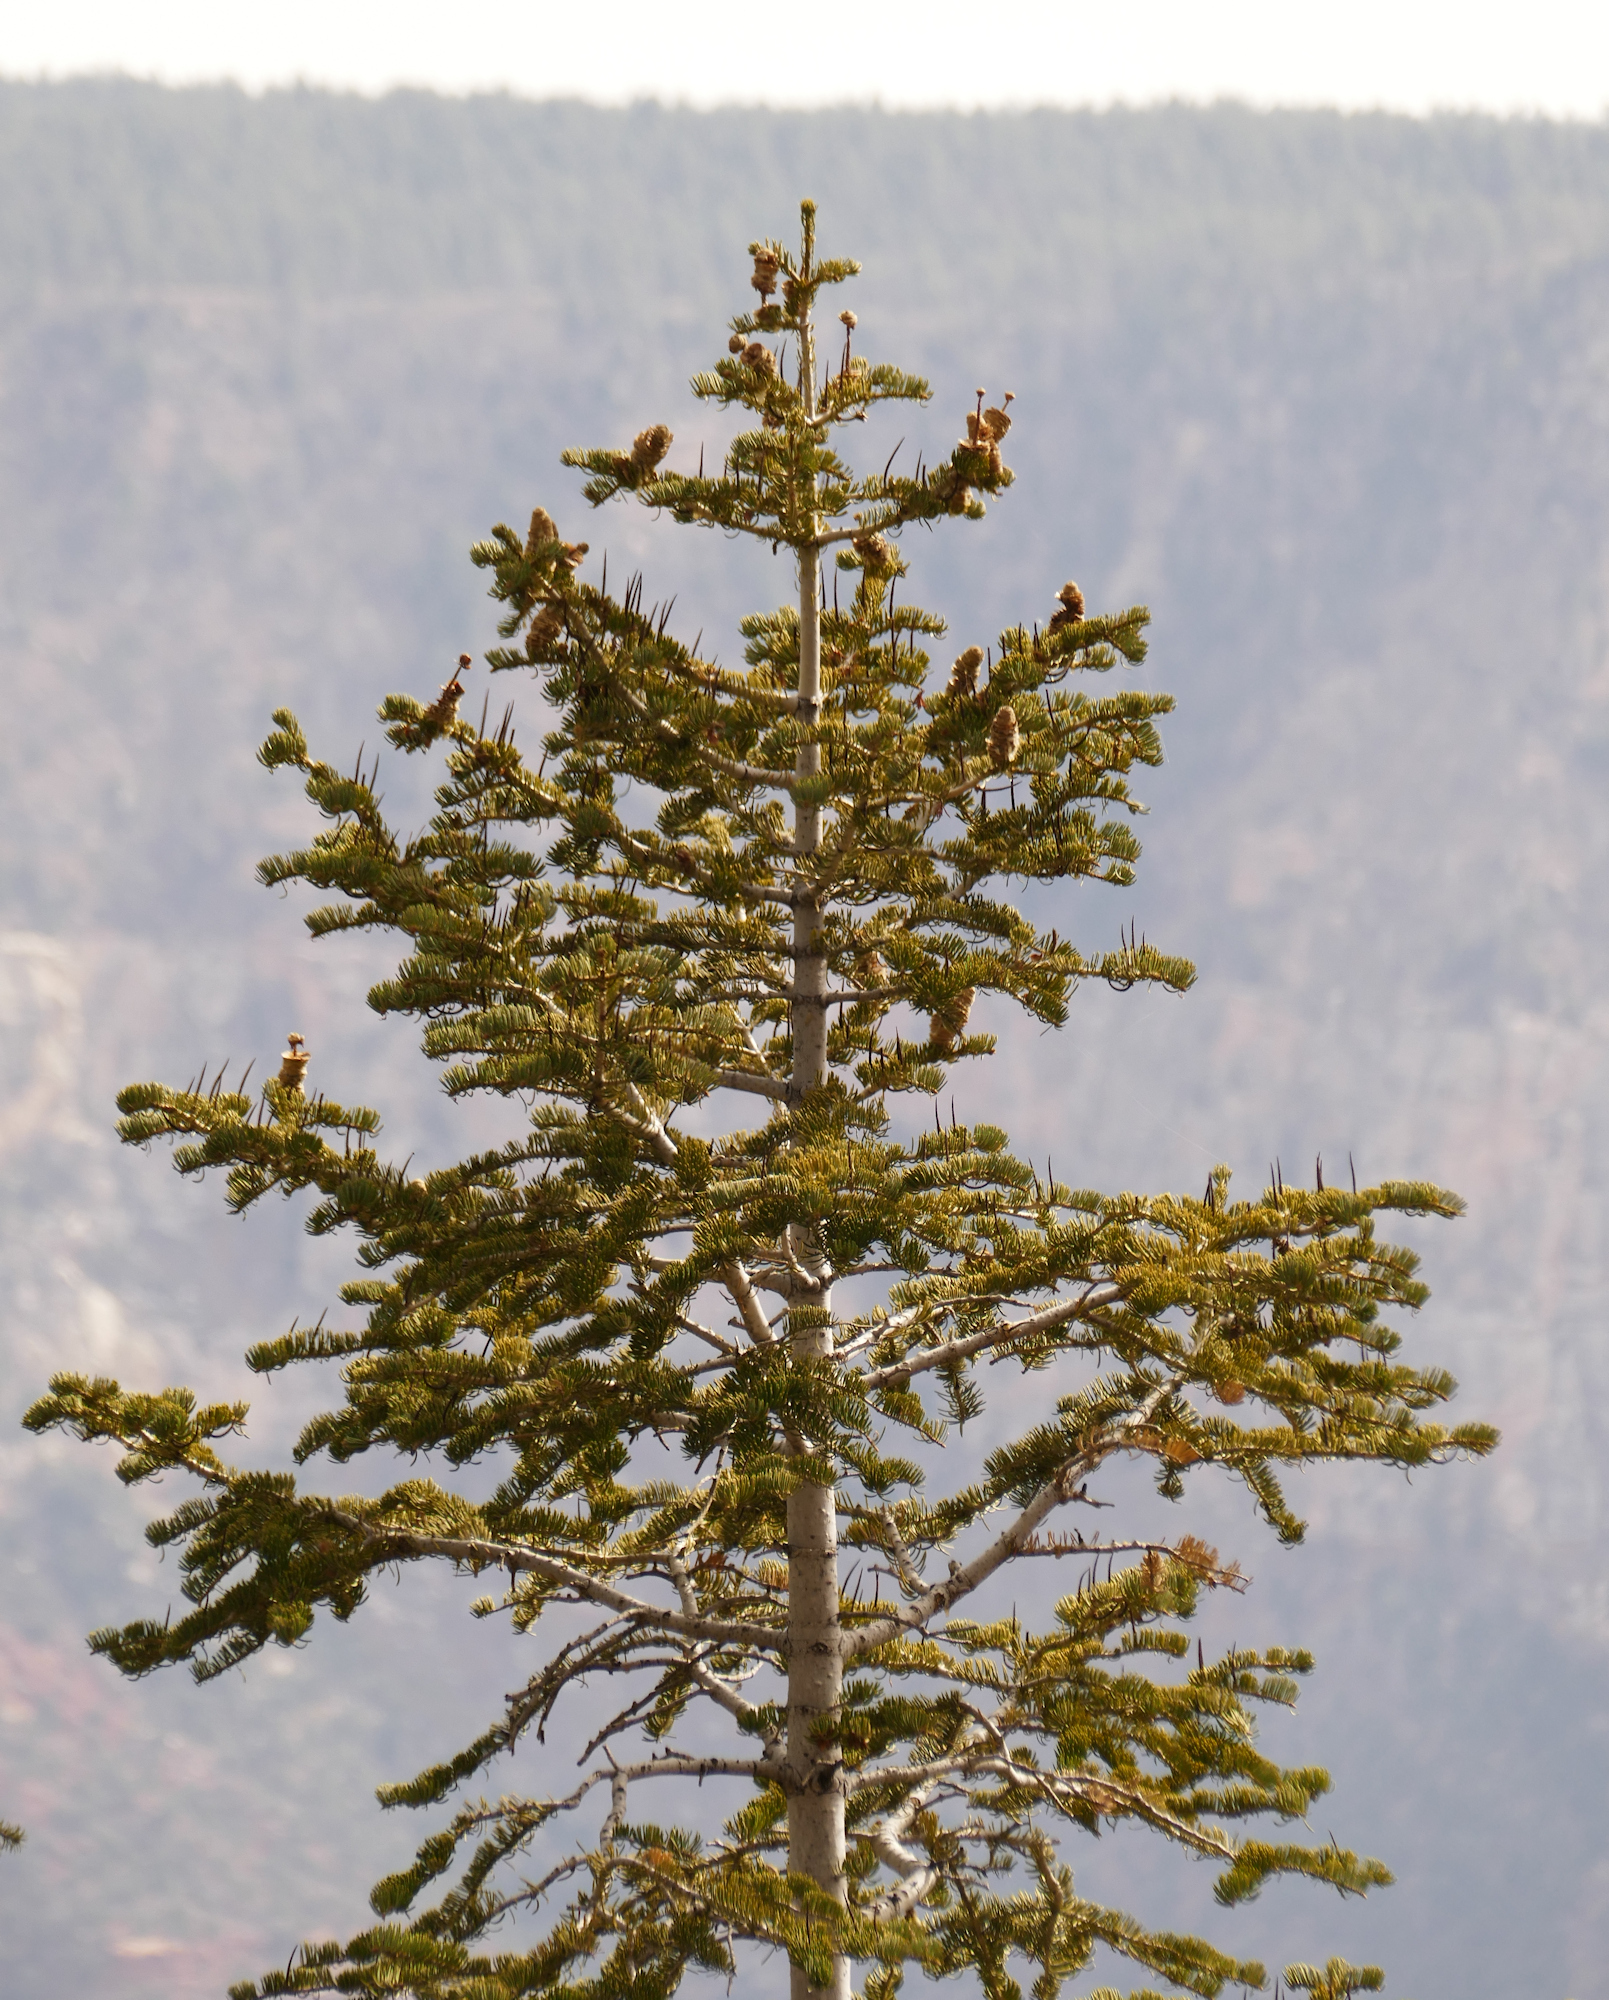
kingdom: Plantae
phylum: Tracheophyta
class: Pinopsida
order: Pinales
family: Pinaceae
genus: Abies
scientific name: Abies concolor
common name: Colorado fir
